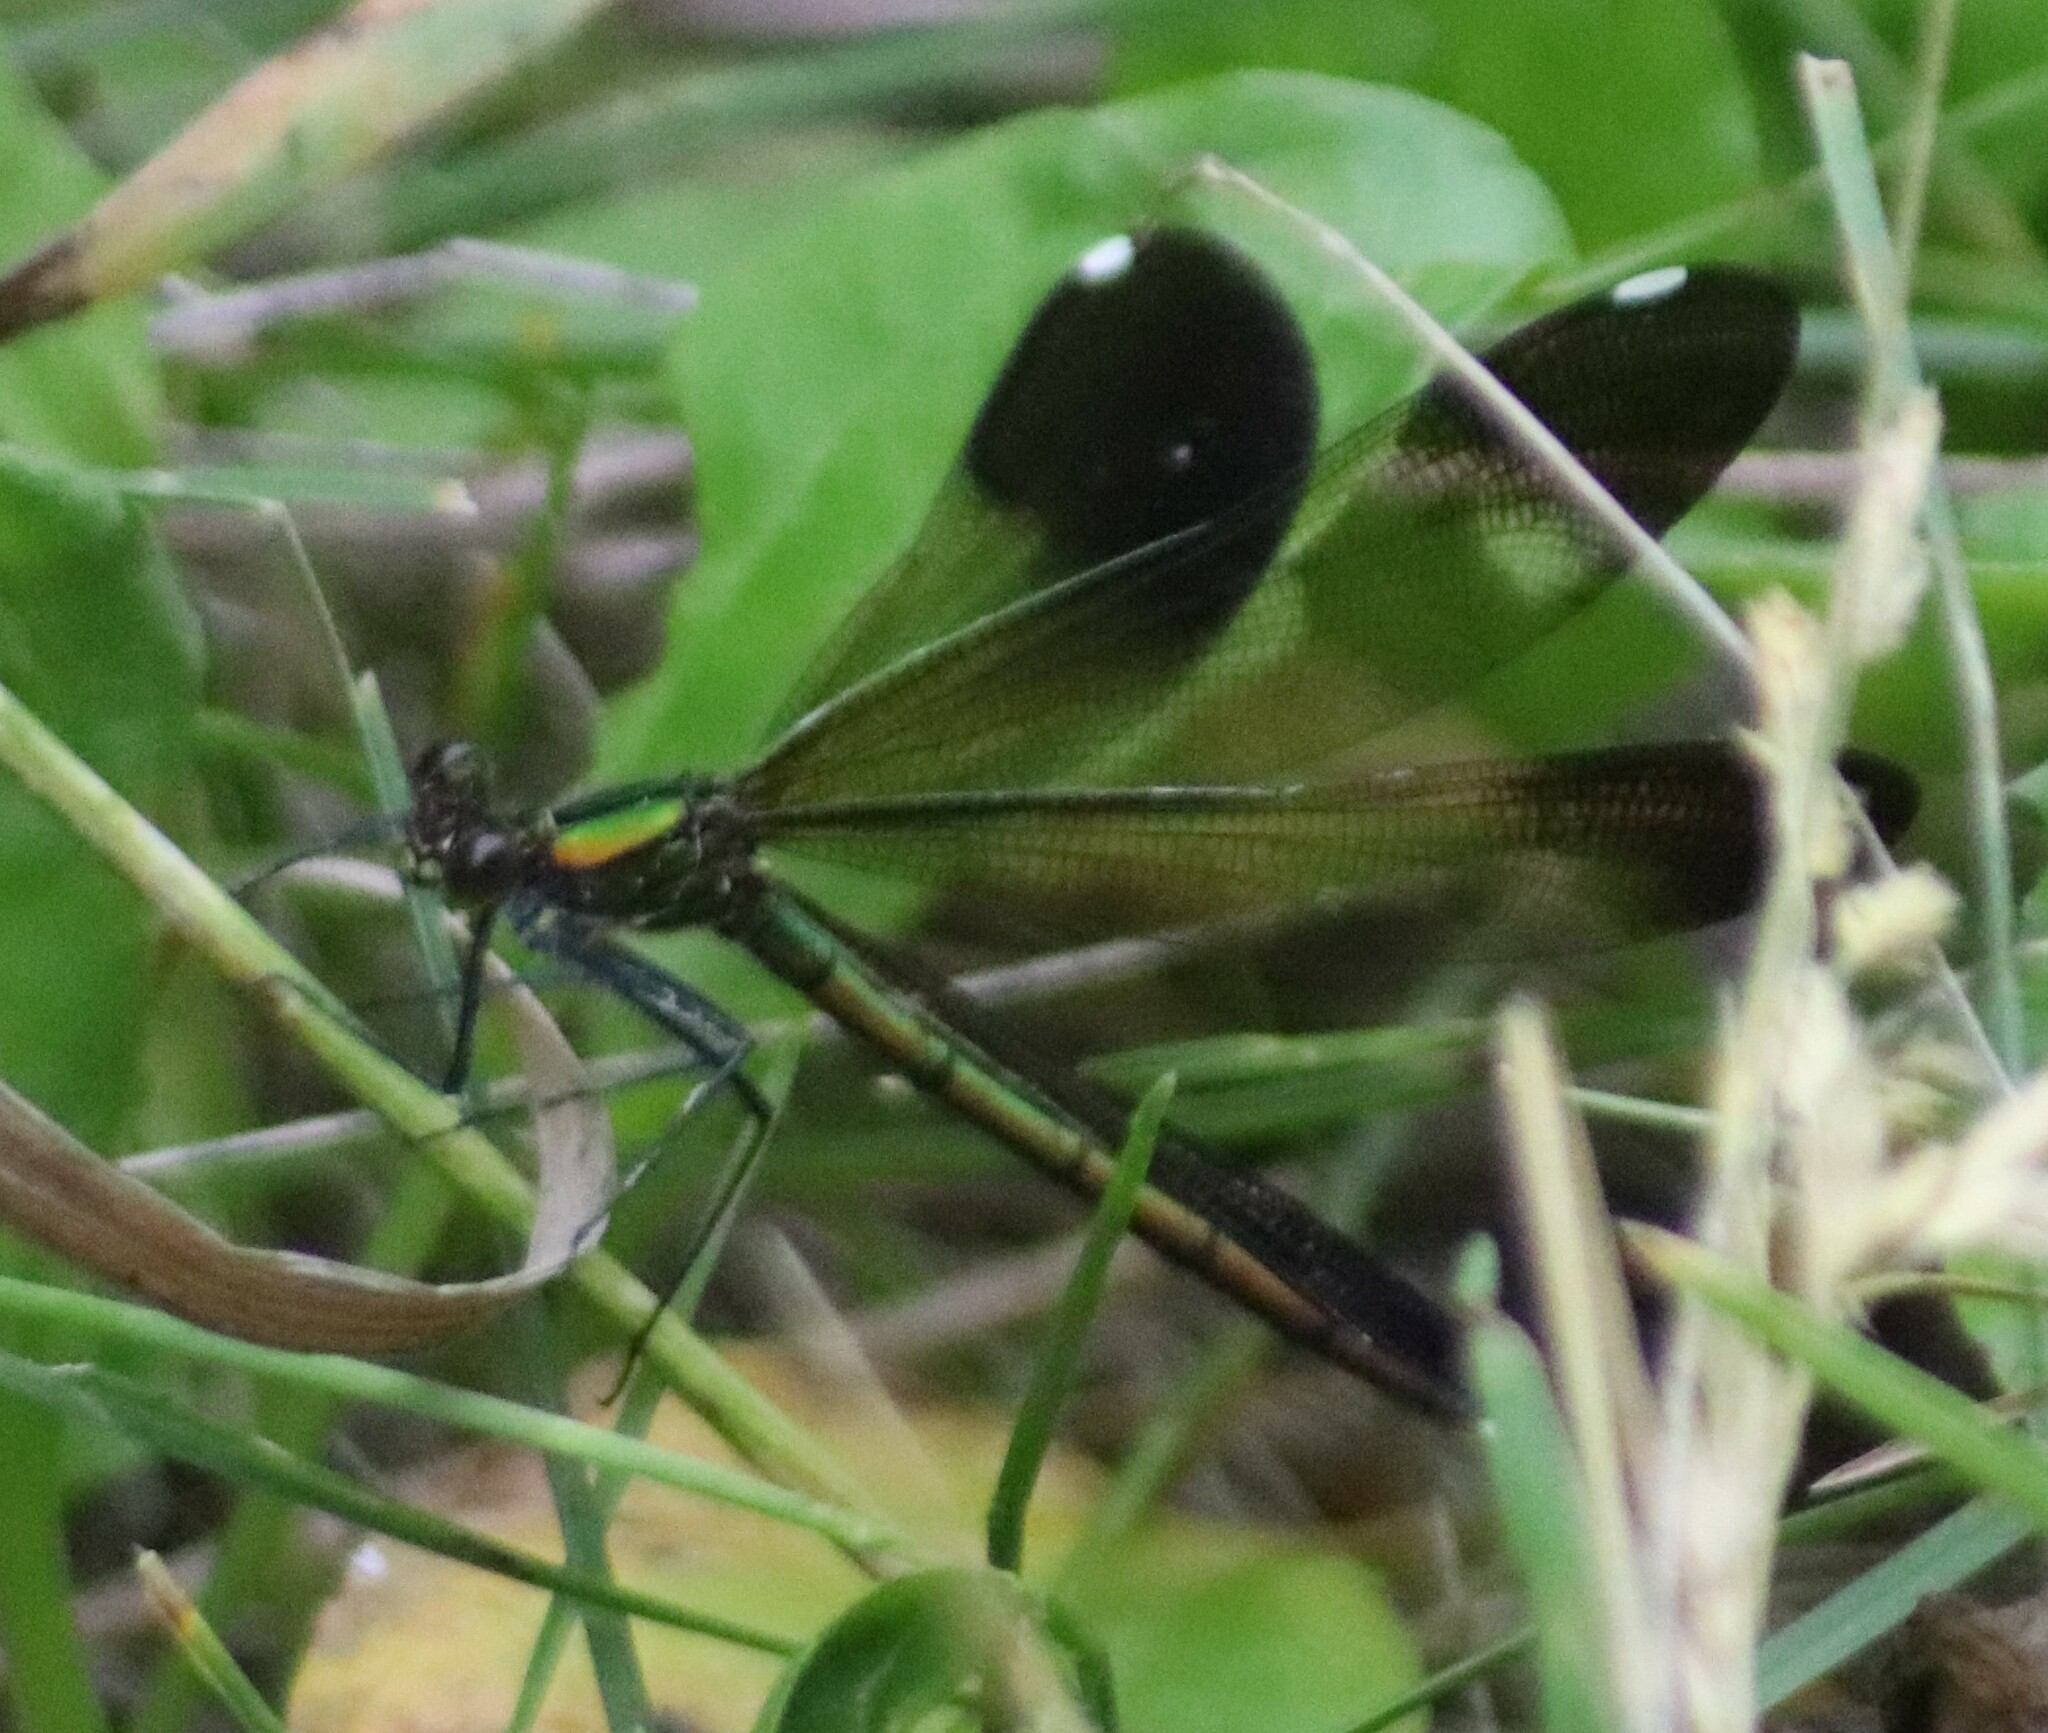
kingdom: Animalia
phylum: Arthropoda
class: Insecta
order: Odonata
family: Calopterygidae
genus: Calopteryx
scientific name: Calopteryx aequabilis
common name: River jewelwing
